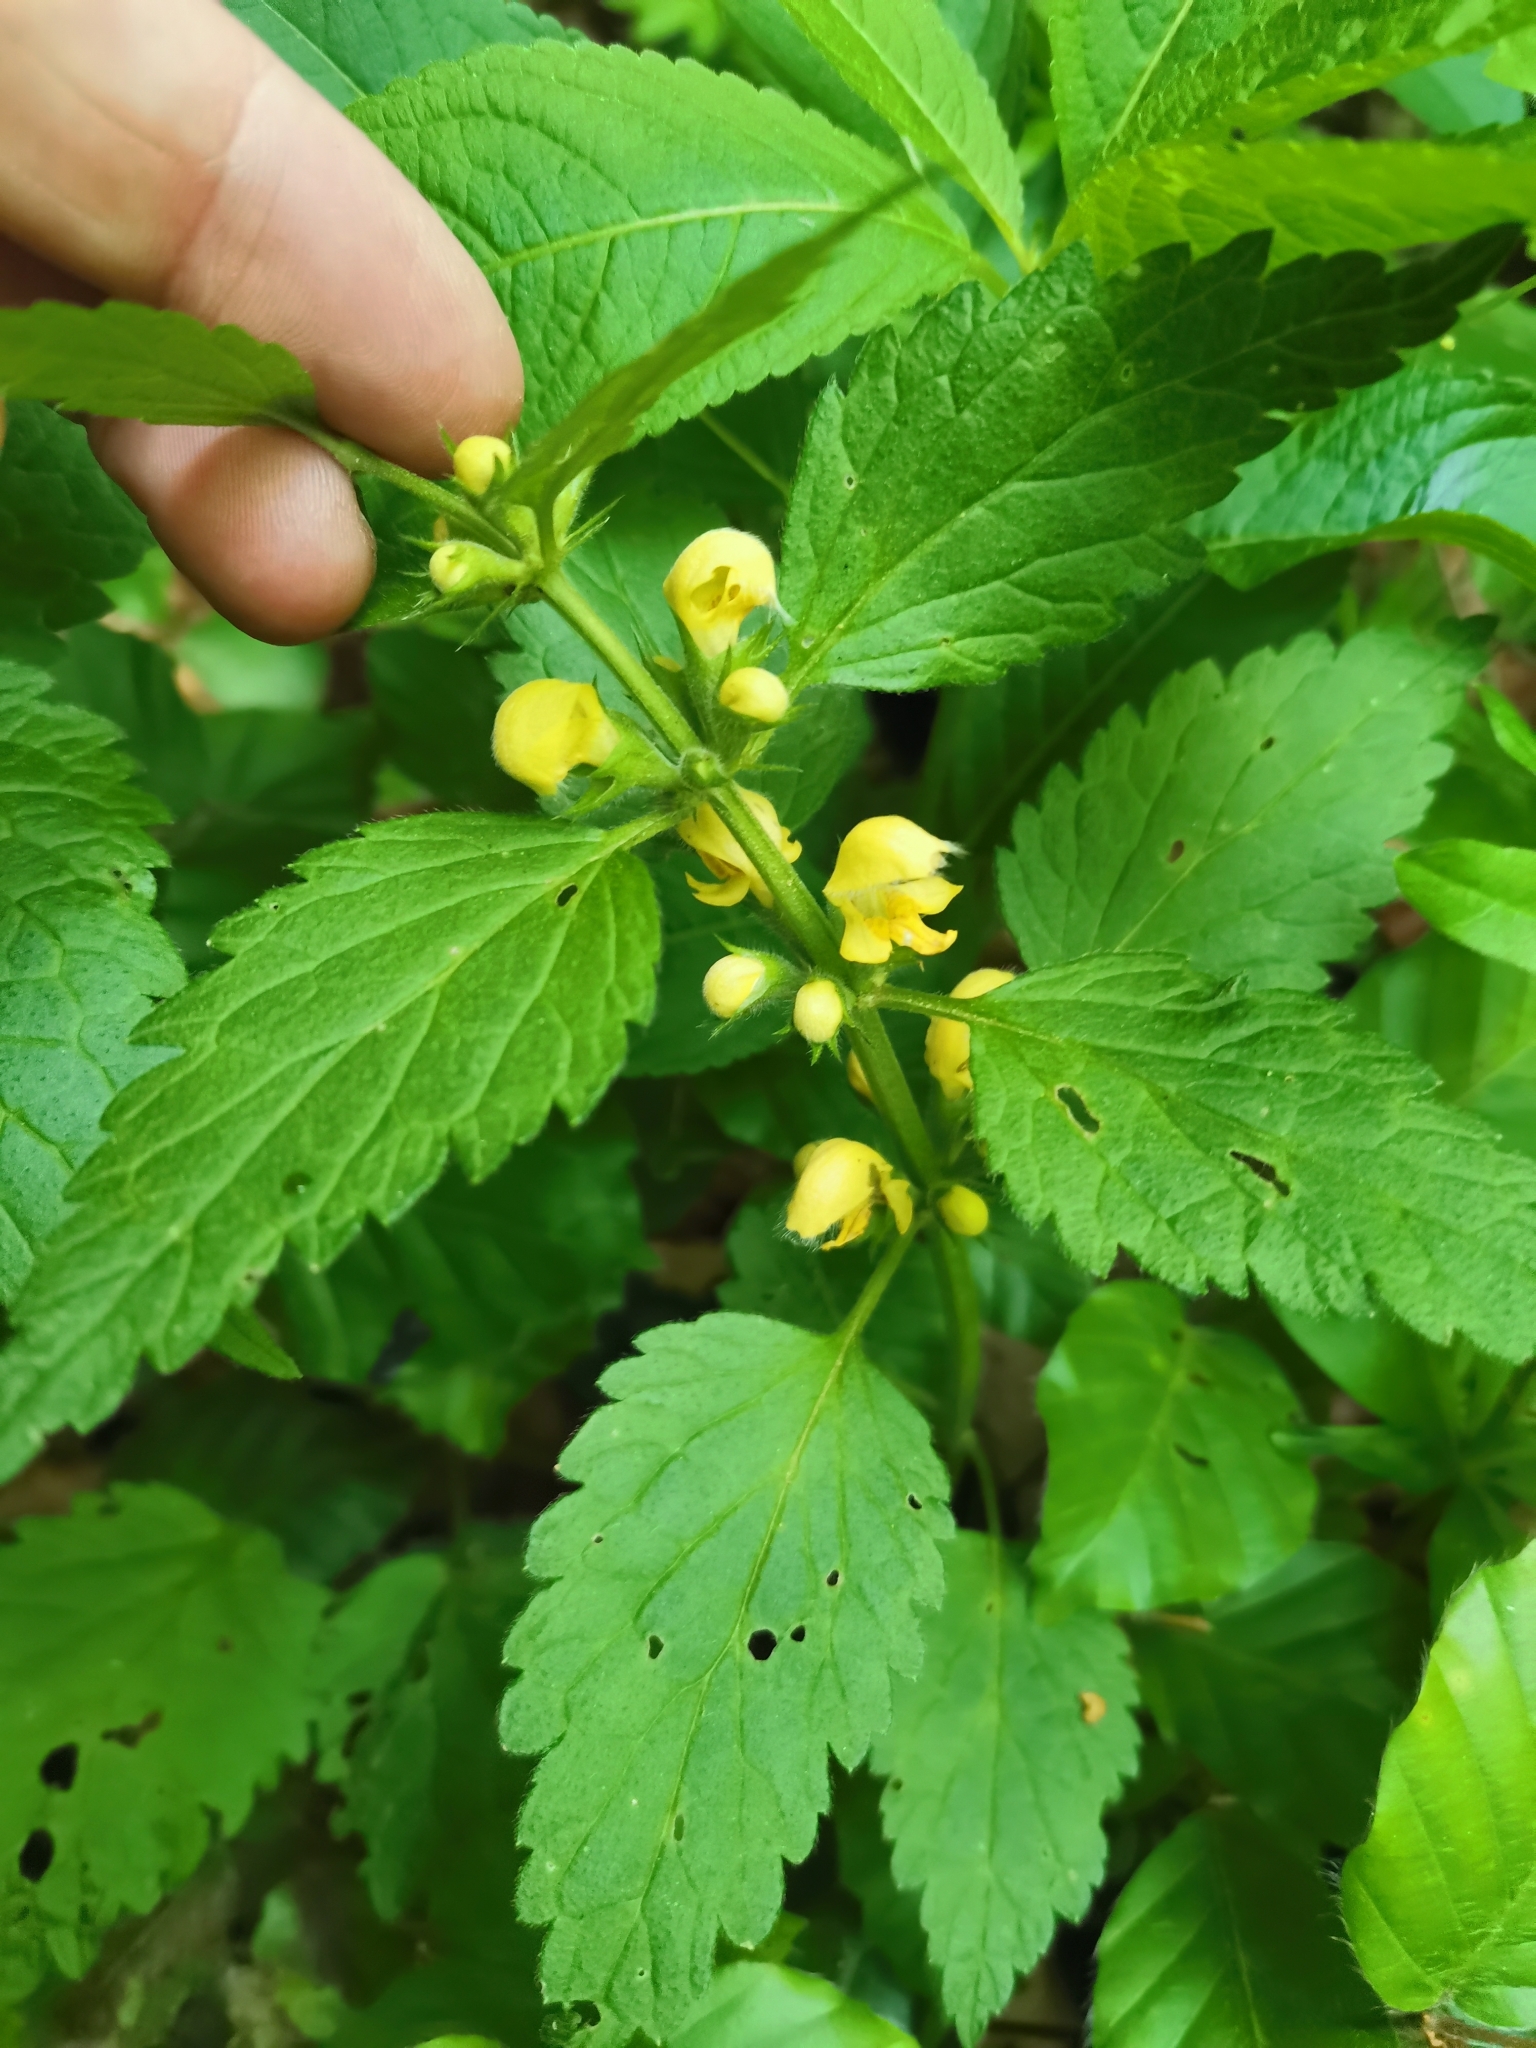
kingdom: Plantae
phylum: Tracheophyta
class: Magnoliopsida
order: Lamiales
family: Lamiaceae
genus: Lamium
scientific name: Lamium galeobdolon
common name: Yellow archangel
